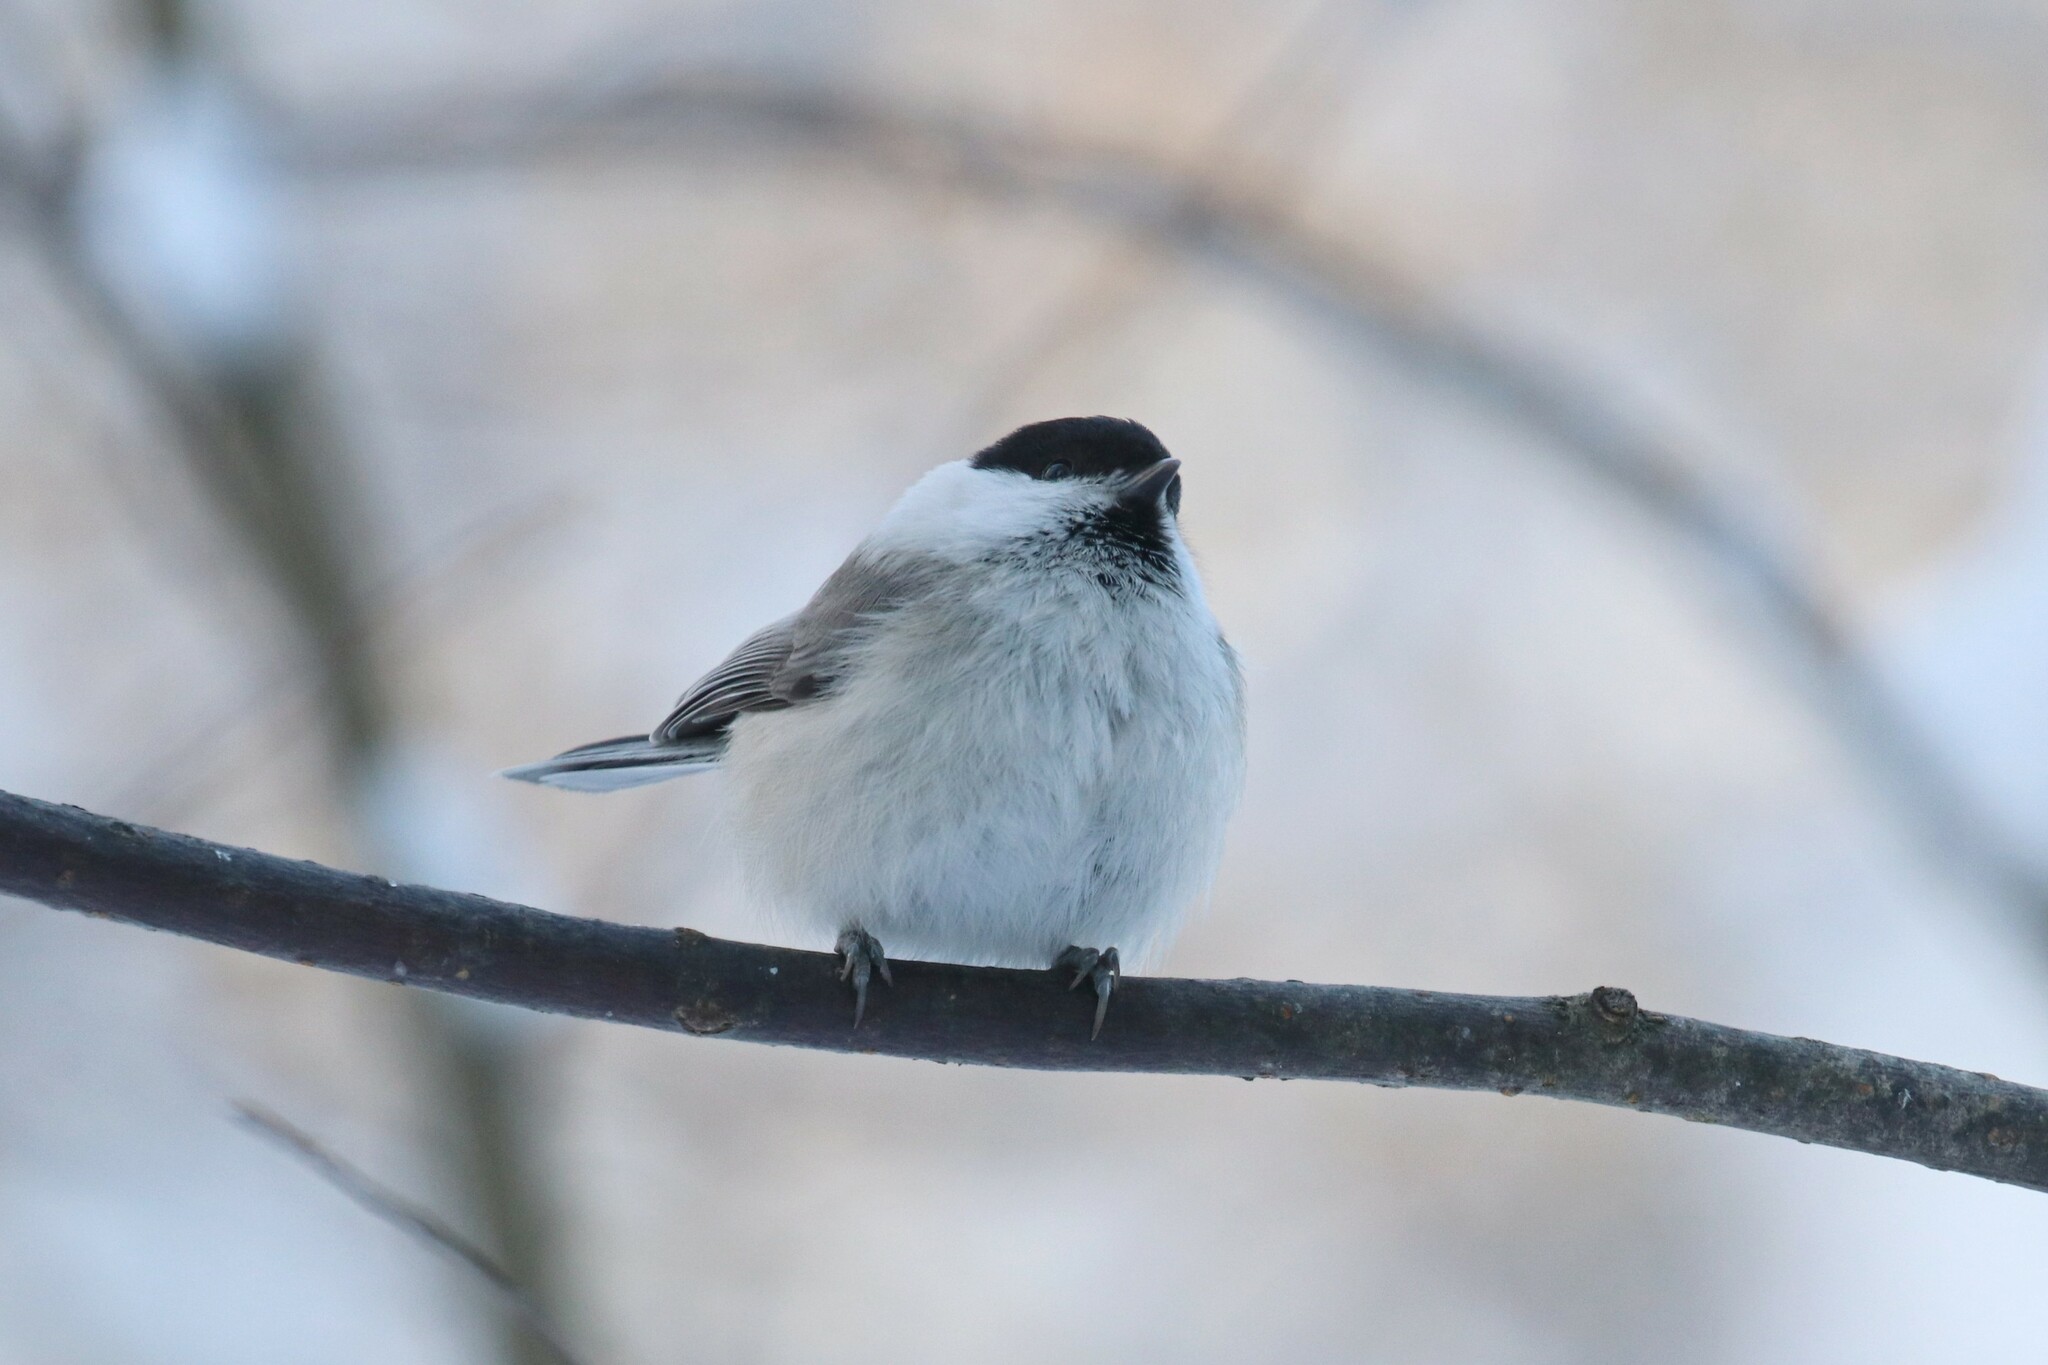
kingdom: Animalia
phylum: Chordata
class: Aves
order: Passeriformes
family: Paridae
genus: Poecile
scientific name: Poecile montanus
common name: Willow tit
